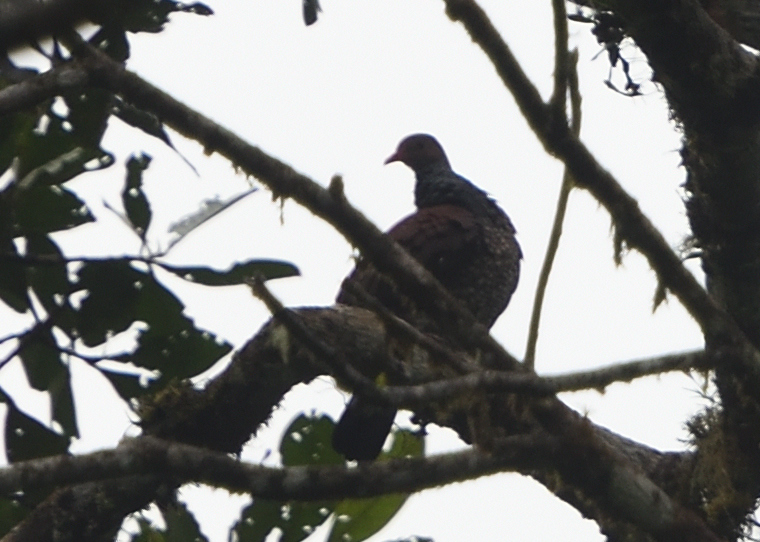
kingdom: Animalia
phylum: Chordata
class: Aves
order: Columbiformes
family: Columbidae
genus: Patagioenas
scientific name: Patagioenas speciosa
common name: Scaled pigeon
